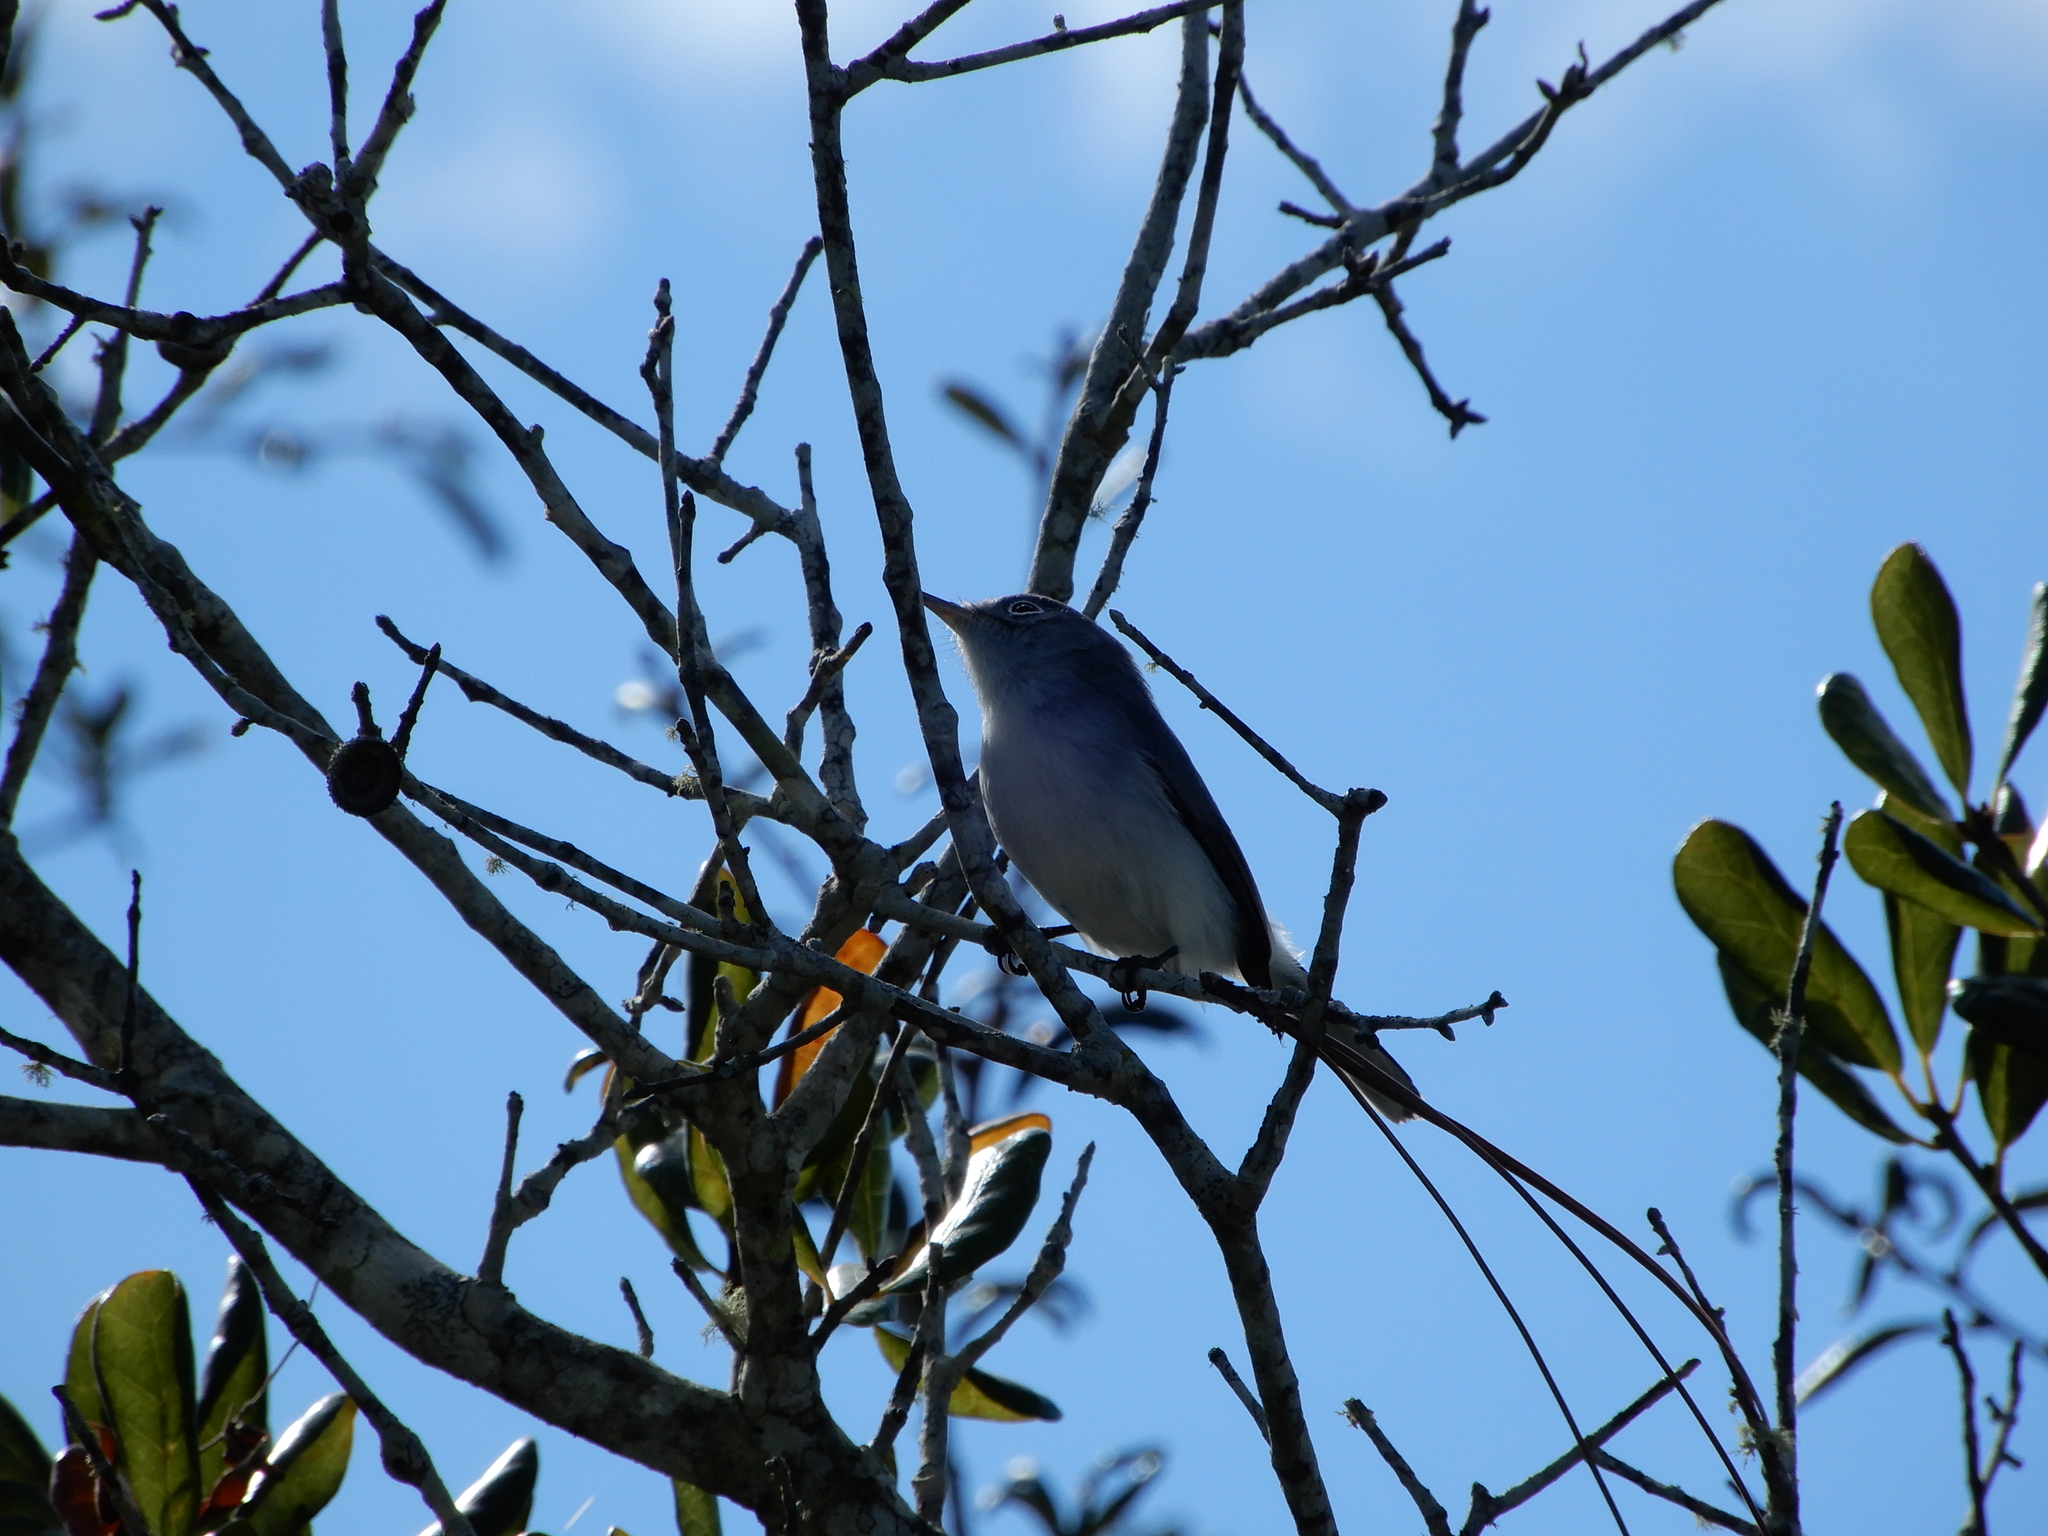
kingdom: Animalia
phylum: Chordata
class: Aves
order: Passeriformes
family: Polioptilidae
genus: Polioptila
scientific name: Polioptila caerulea
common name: Blue-gray gnatcatcher
